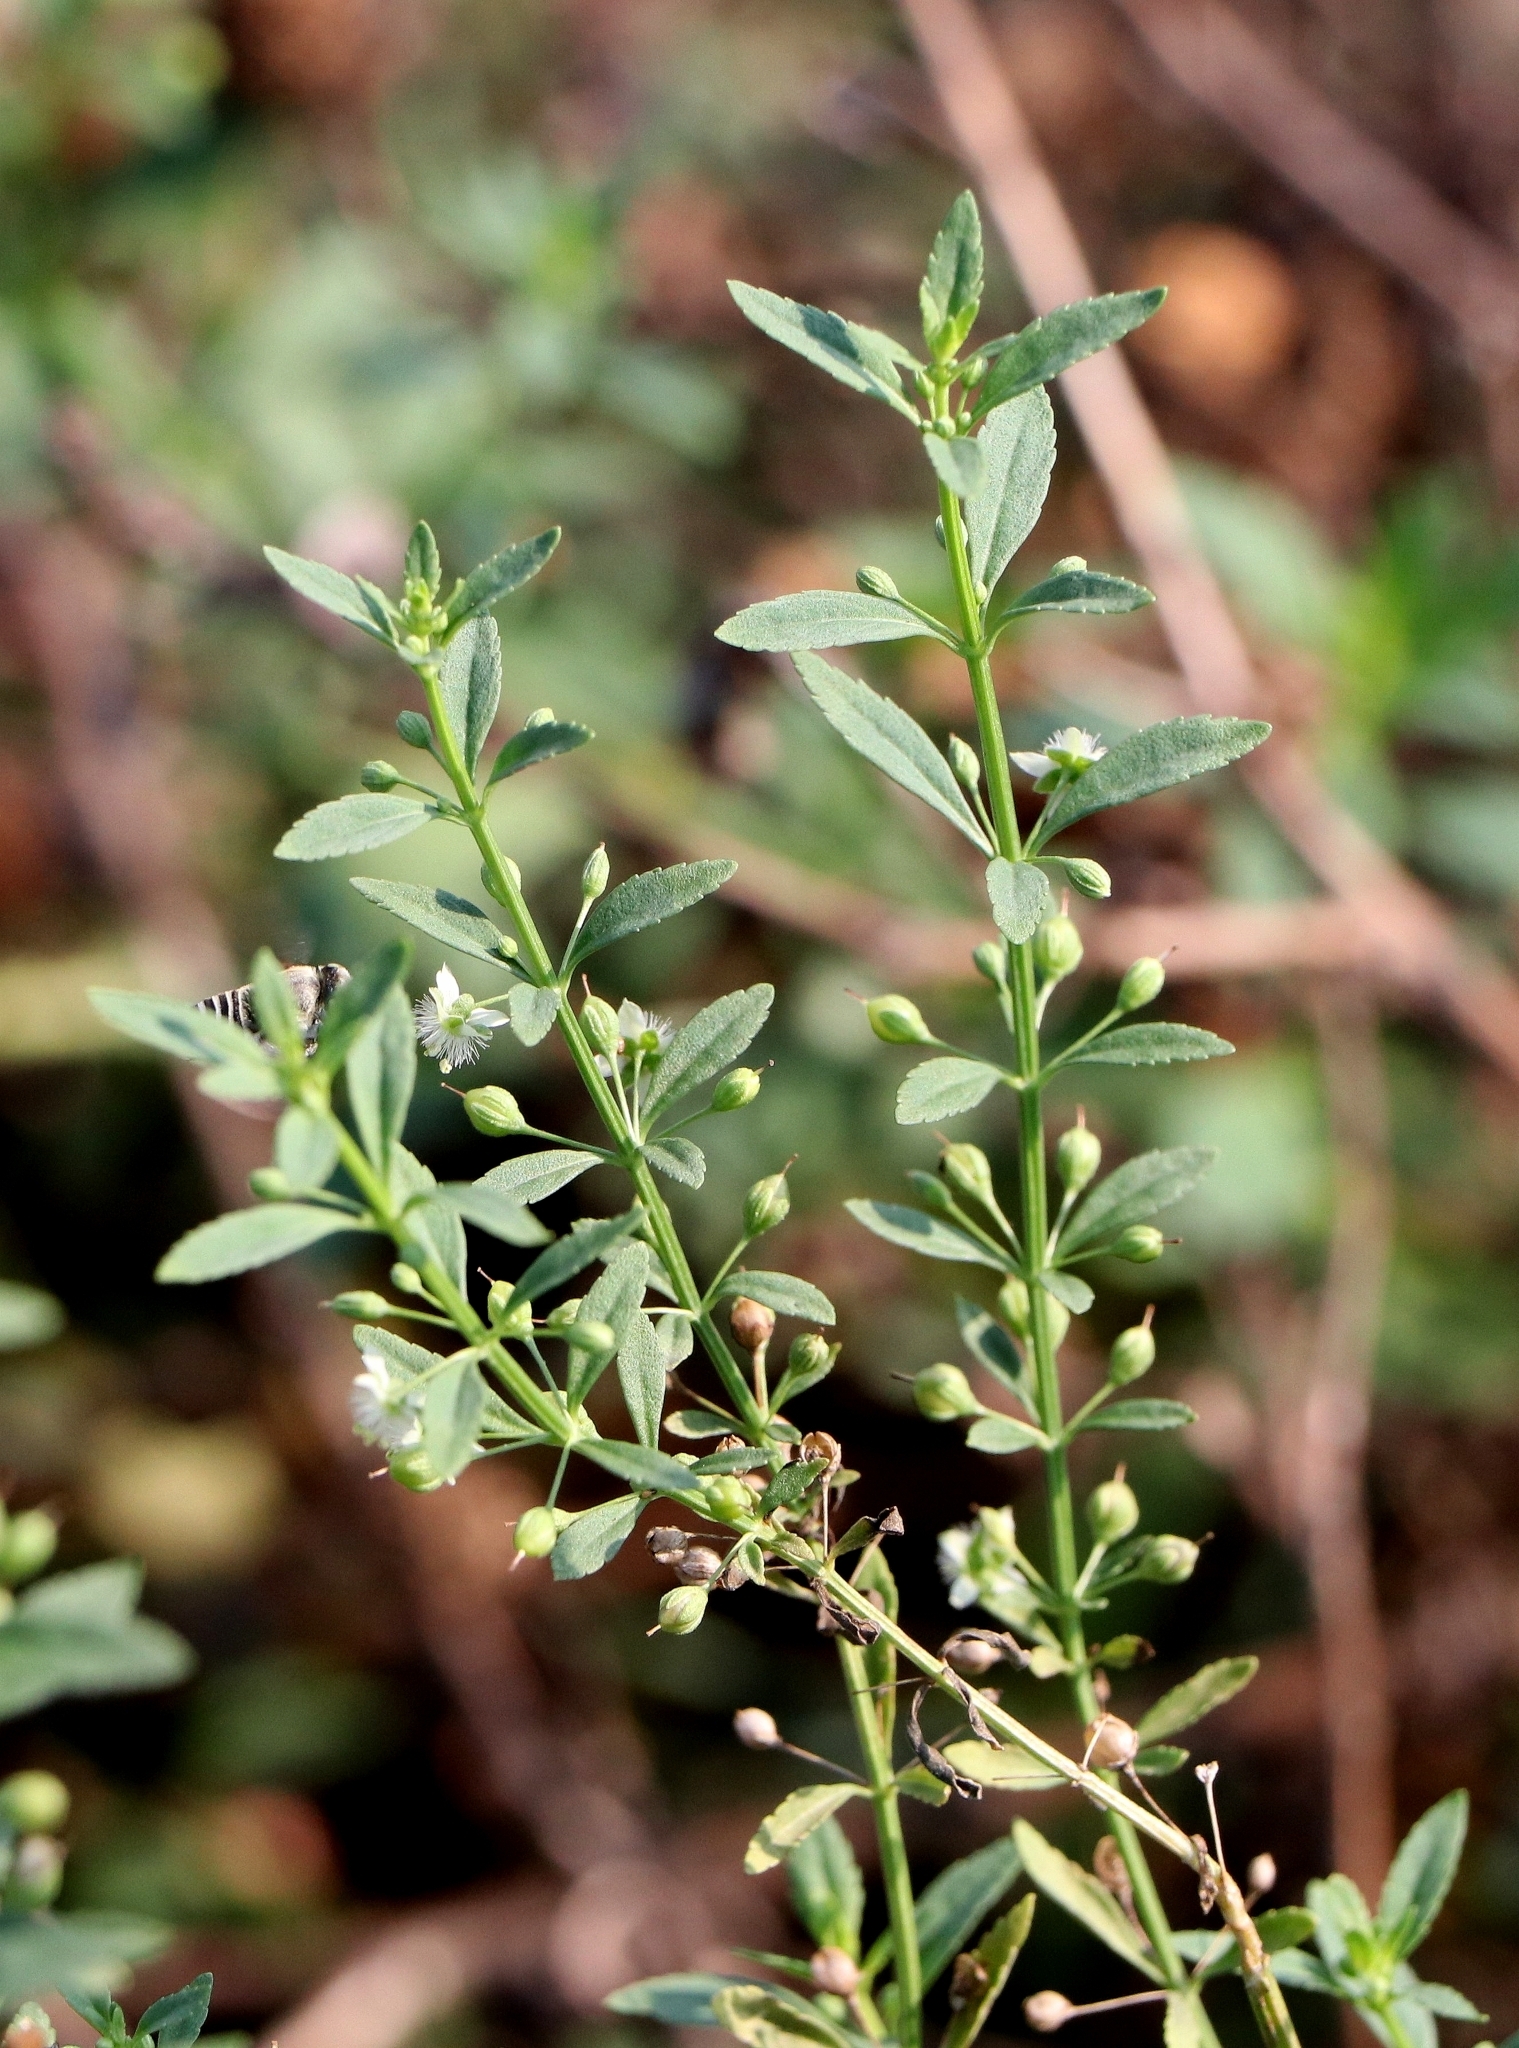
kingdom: Plantae
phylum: Tracheophyta
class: Magnoliopsida
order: Lamiales
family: Plantaginaceae
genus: Scoparia
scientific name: Scoparia dulcis
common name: Scoparia-weed
